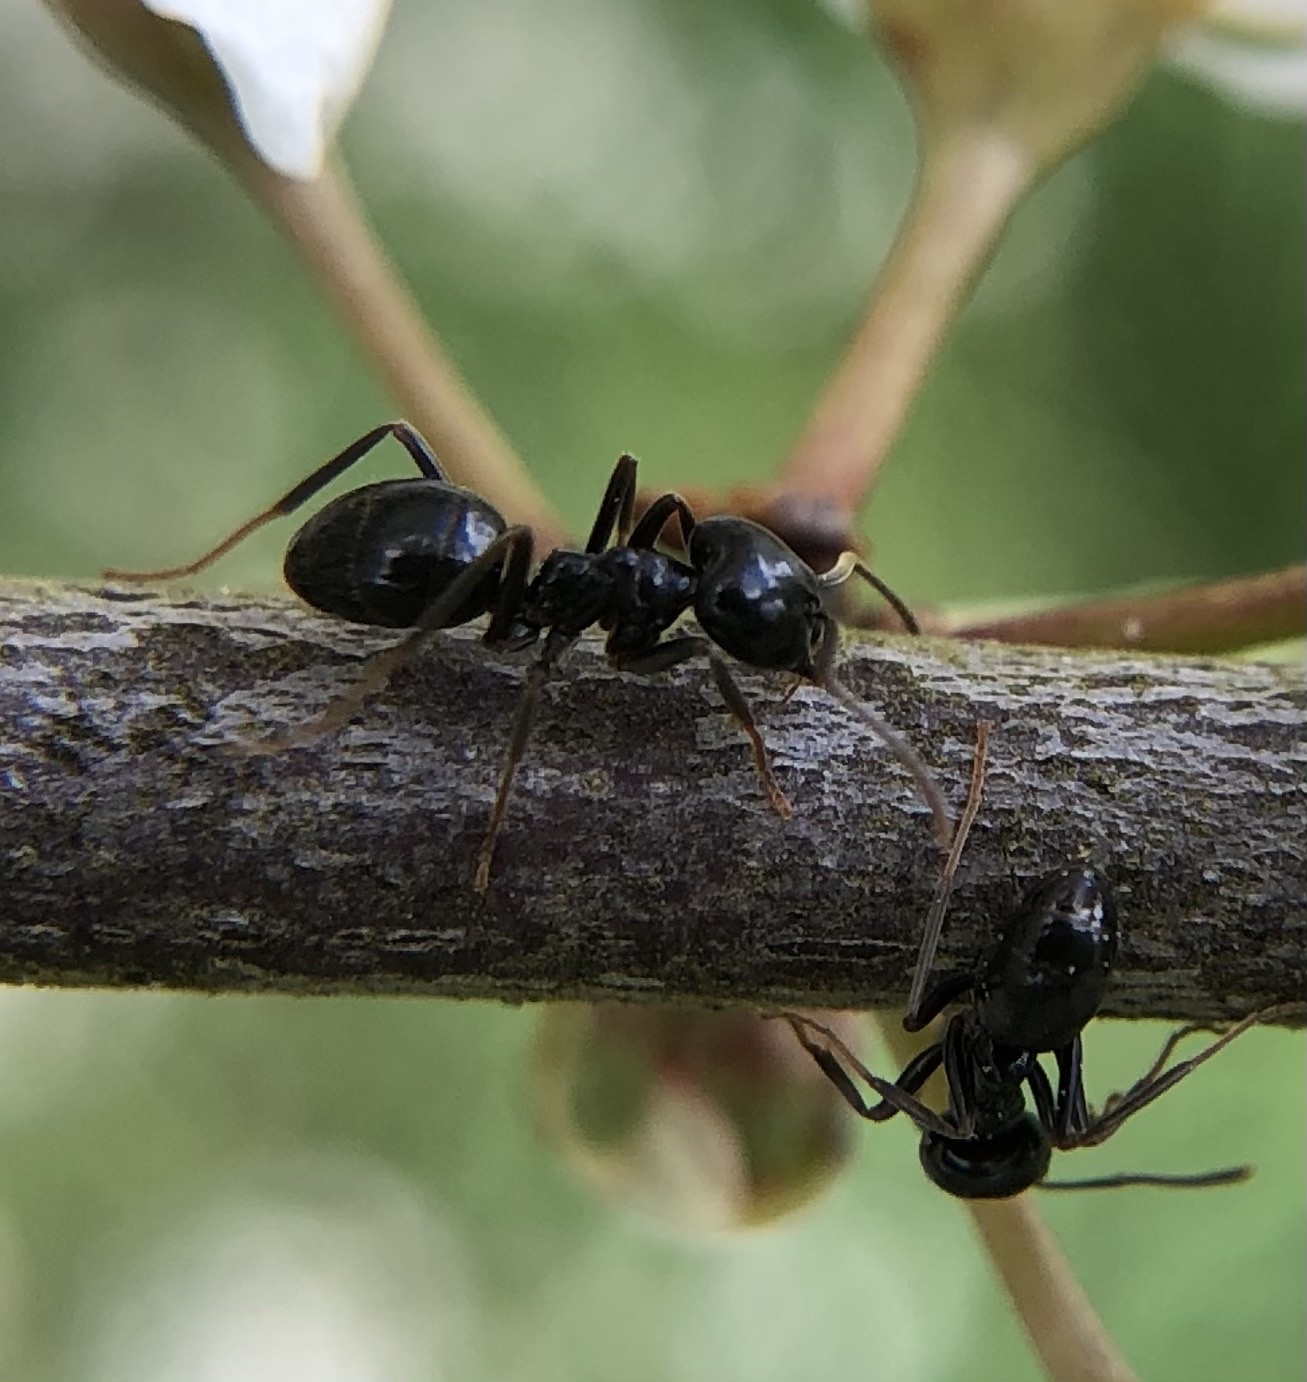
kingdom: Animalia
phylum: Arthropoda
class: Insecta
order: Hymenoptera
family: Formicidae
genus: Lasius
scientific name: Lasius fuliginosus
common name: Jet ant
